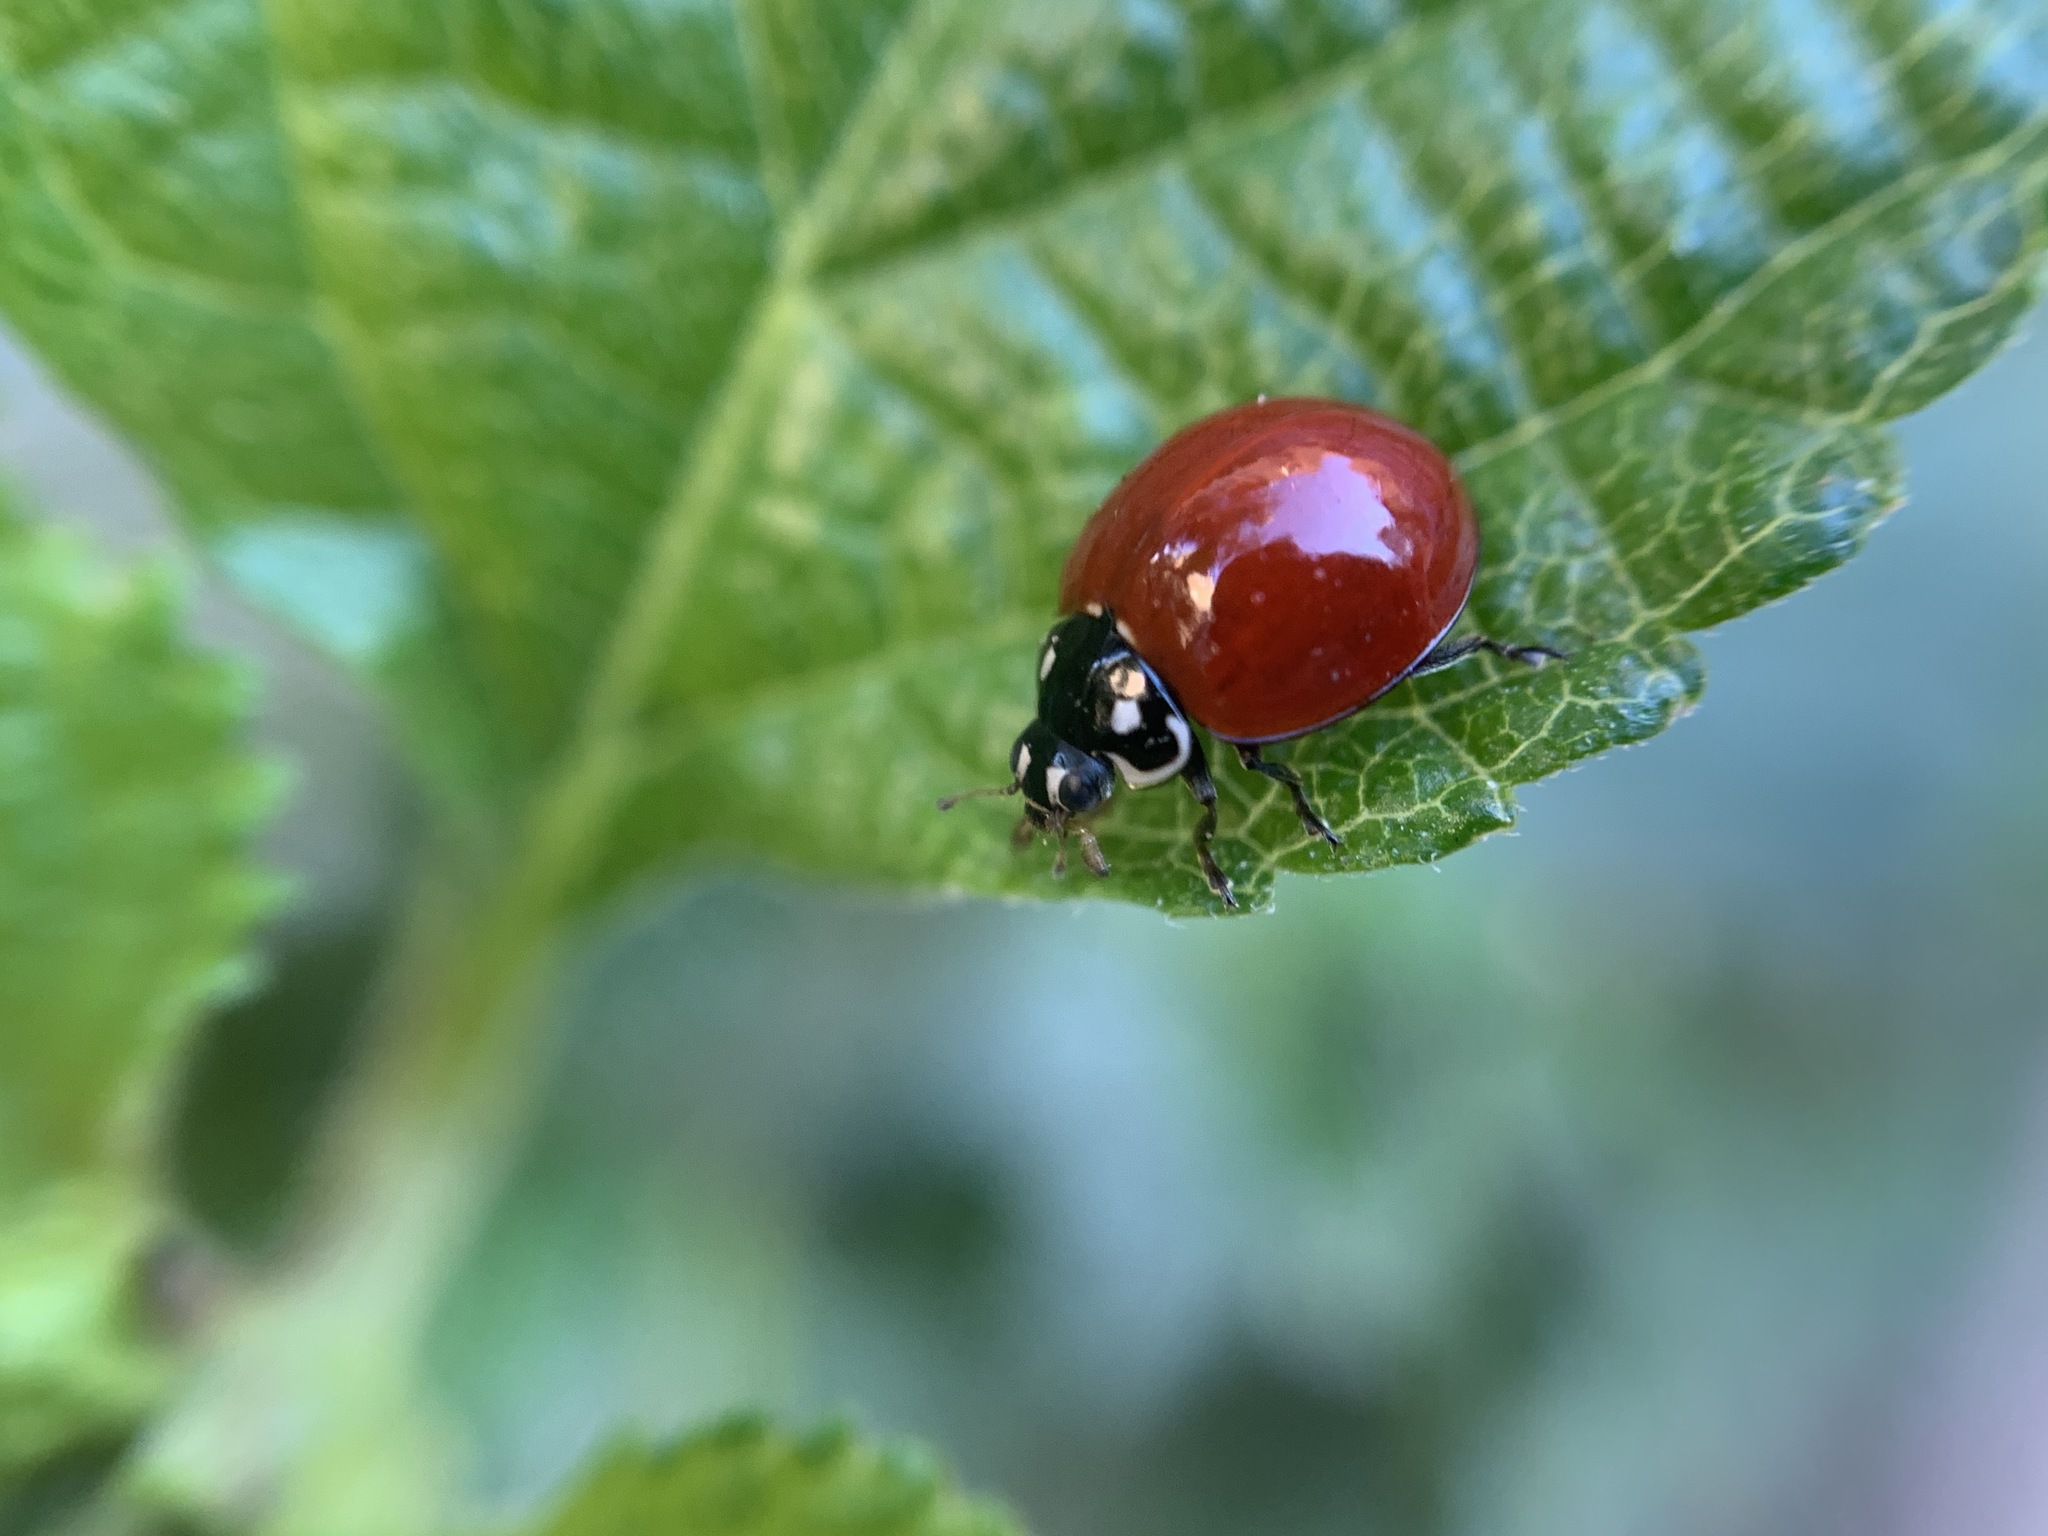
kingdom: Animalia
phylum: Arthropoda
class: Insecta
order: Coleoptera
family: Coccinellidae
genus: Cycloneda
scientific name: Cycloneda sanguinea
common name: Ladybird beetle
